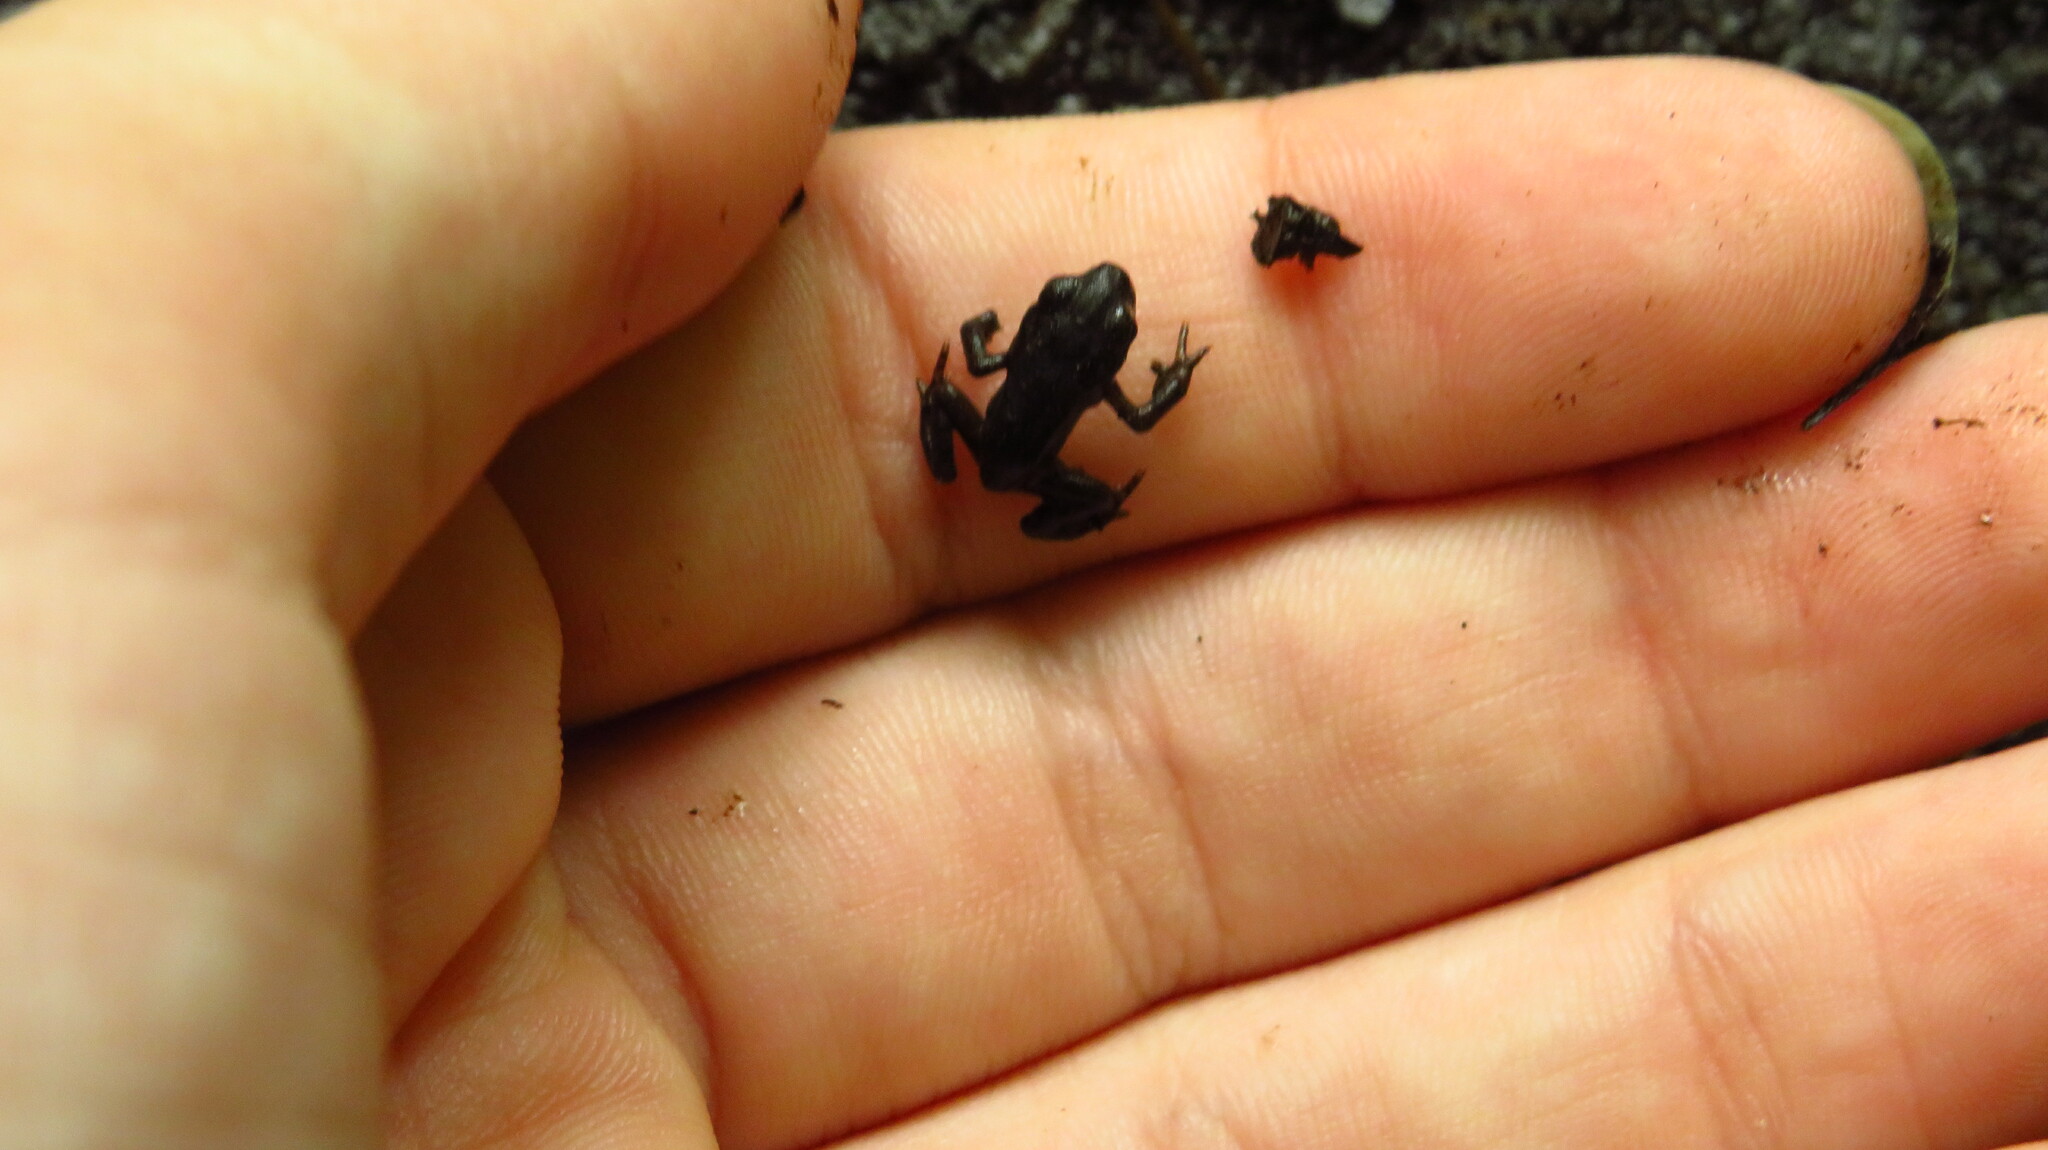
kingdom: Animalia
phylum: Chordata
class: Amphibia
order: Anura
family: Bufonidae
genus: Anaxyrus
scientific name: Anaxyrus americanus
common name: American toad
